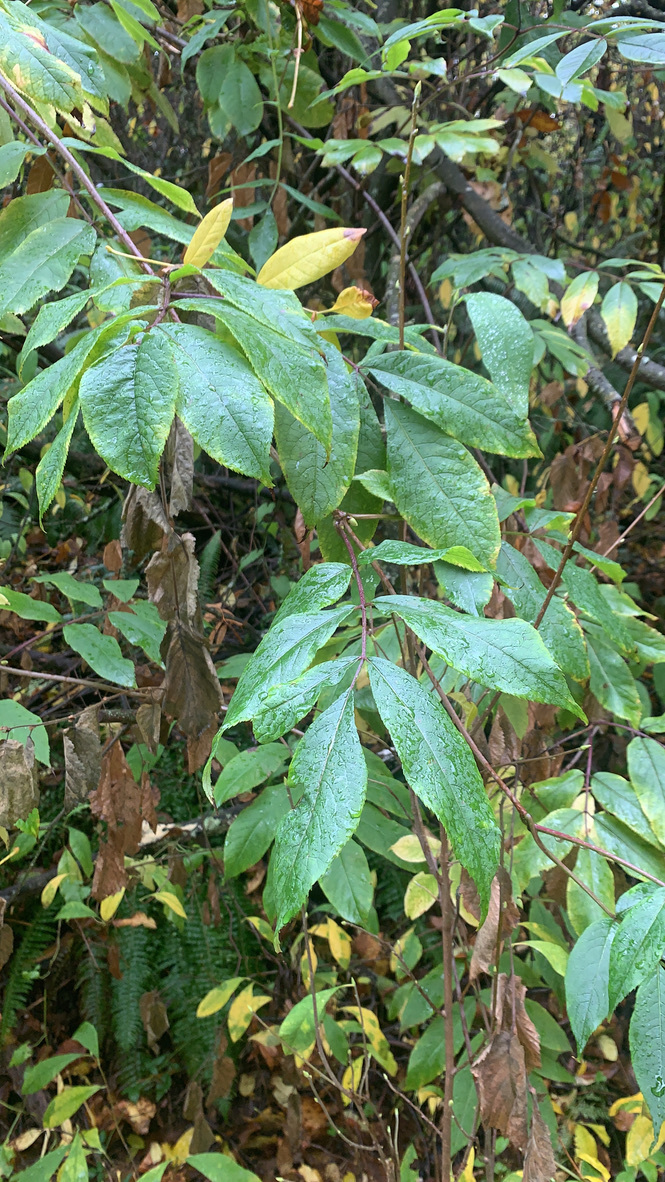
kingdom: Plantae
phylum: Tracheophyta
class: Magnoliopsida
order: Dipsacales
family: Viburnaceae
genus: Sambucus
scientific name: Sambucus racemosa
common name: Red-berried elder
